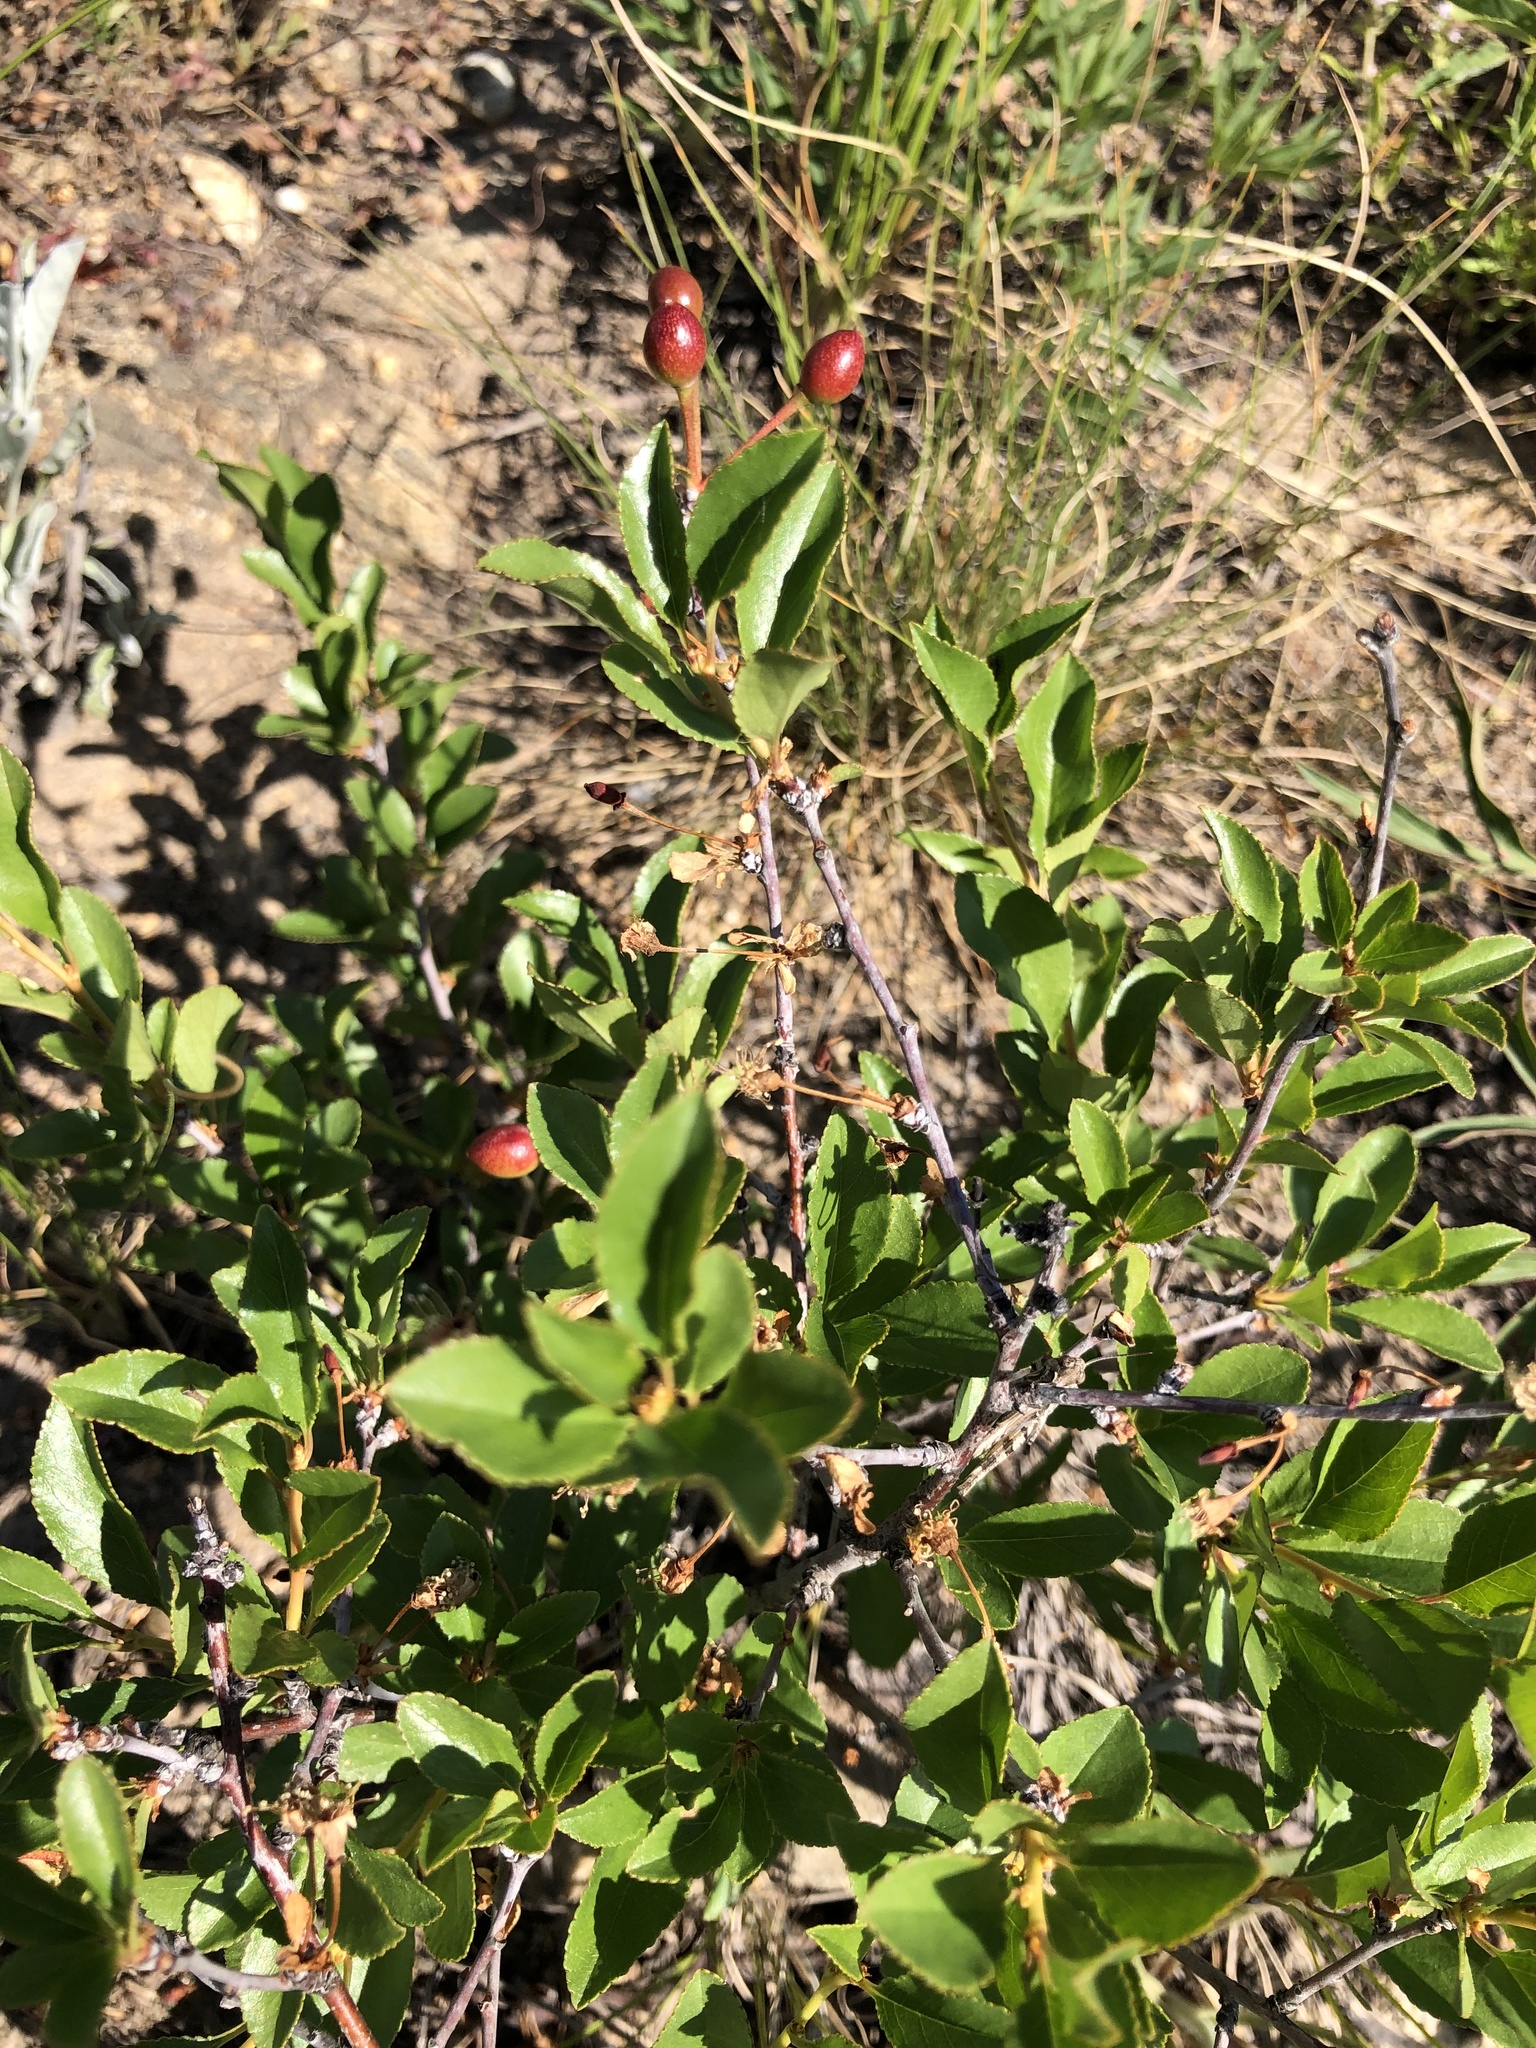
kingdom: Plantae
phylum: Tracheophyta
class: Magnoliopsida
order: Rosales
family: Rosaceae
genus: Prunus
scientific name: Prunus fruticosa
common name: European dwarf cherry
